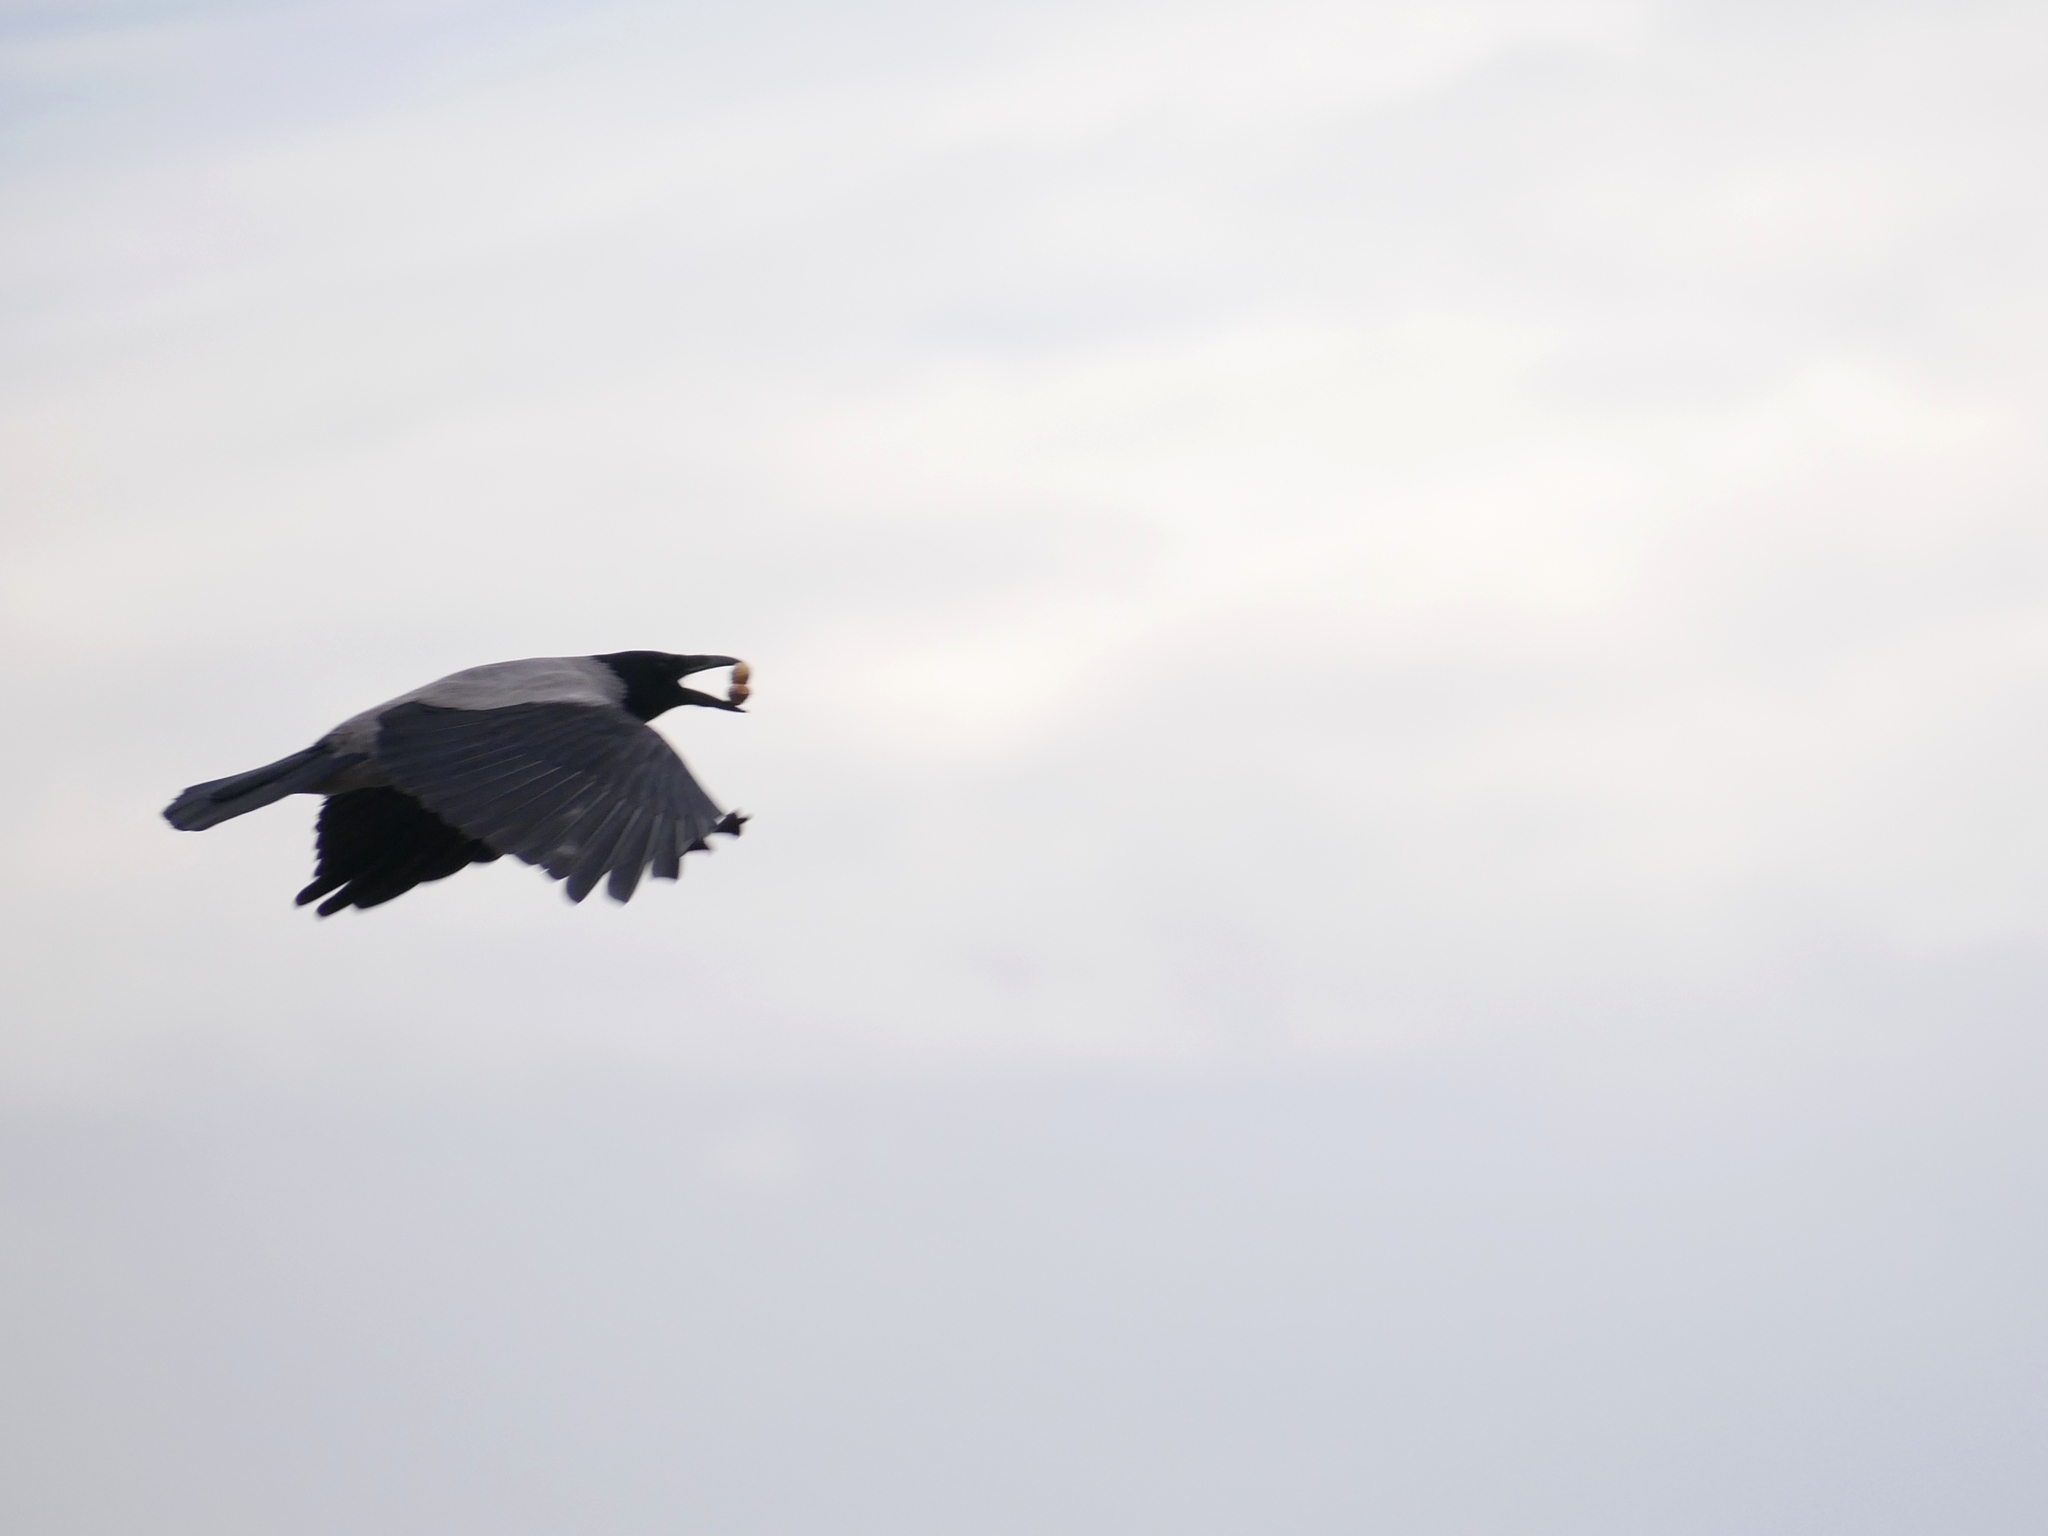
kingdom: Animalia
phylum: Chordata
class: Aves
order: Passeriformes
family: Corvidae
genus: Corvus
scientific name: Corvus cornix
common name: Hooded crow
